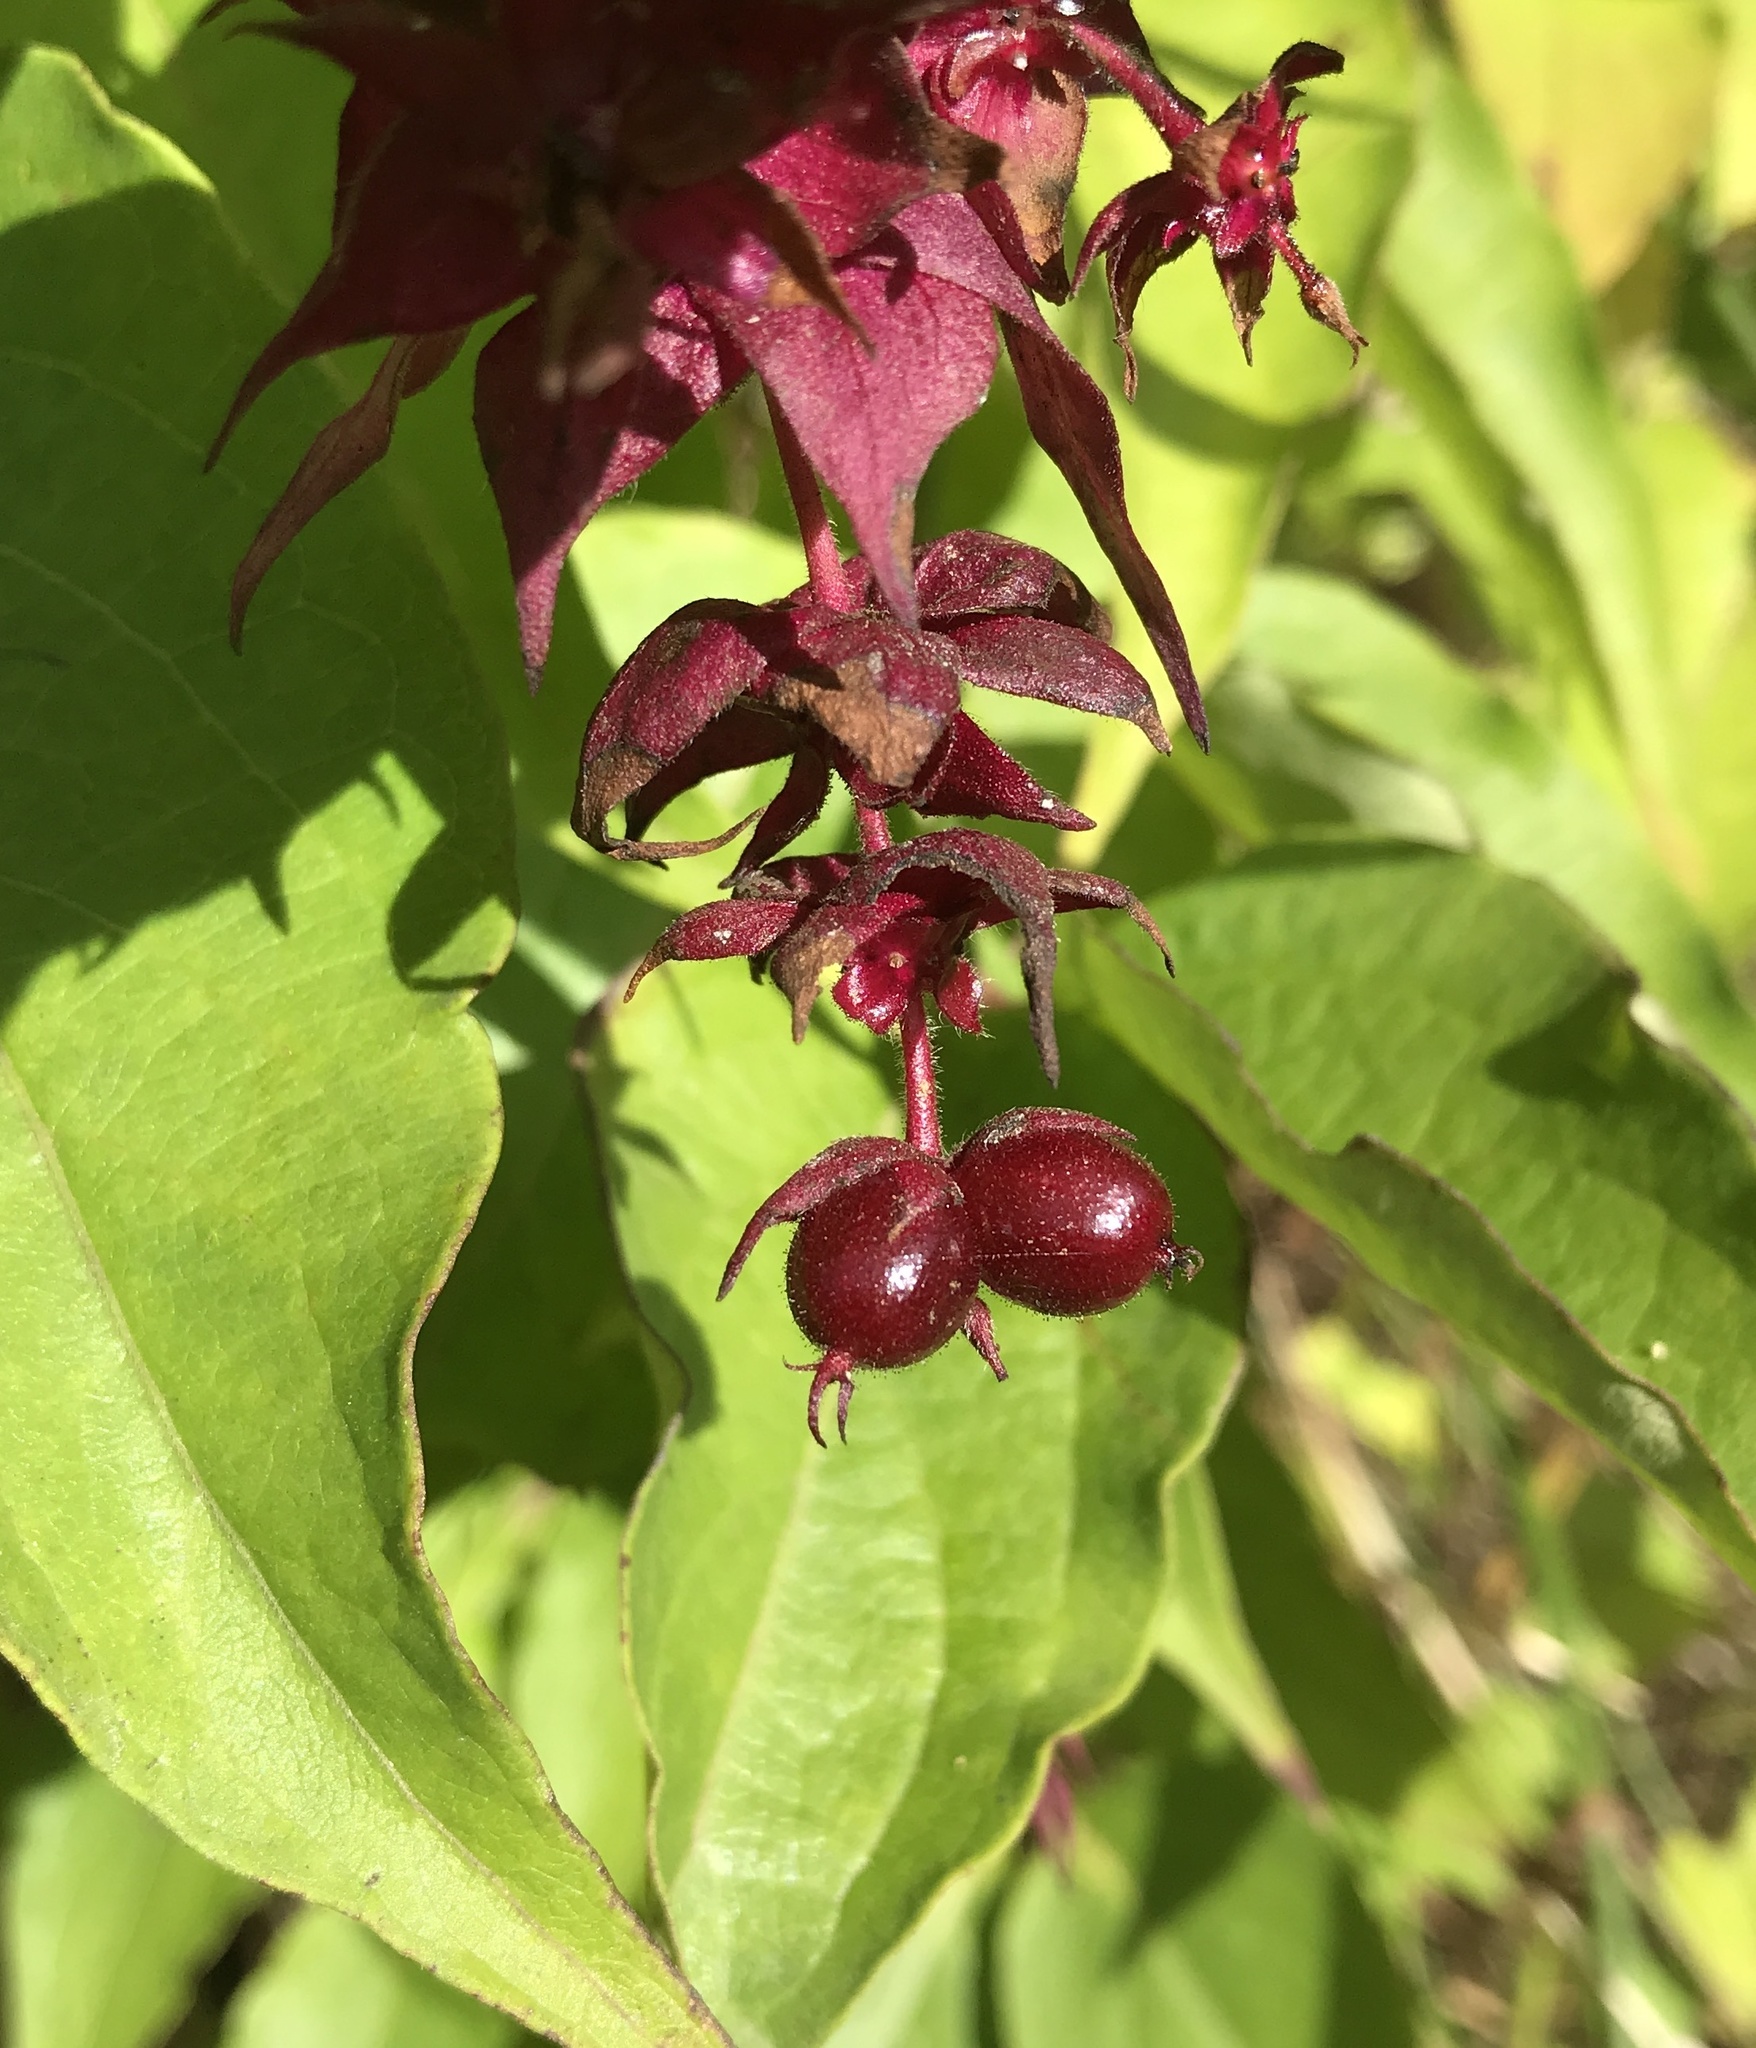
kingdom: Plantae
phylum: Tracheophyta
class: Magnoliopsida
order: Dipsacales
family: Caprifoliaceae
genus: Leycesteria
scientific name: Leycesteria formosa
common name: Himalayan honeysuckle
